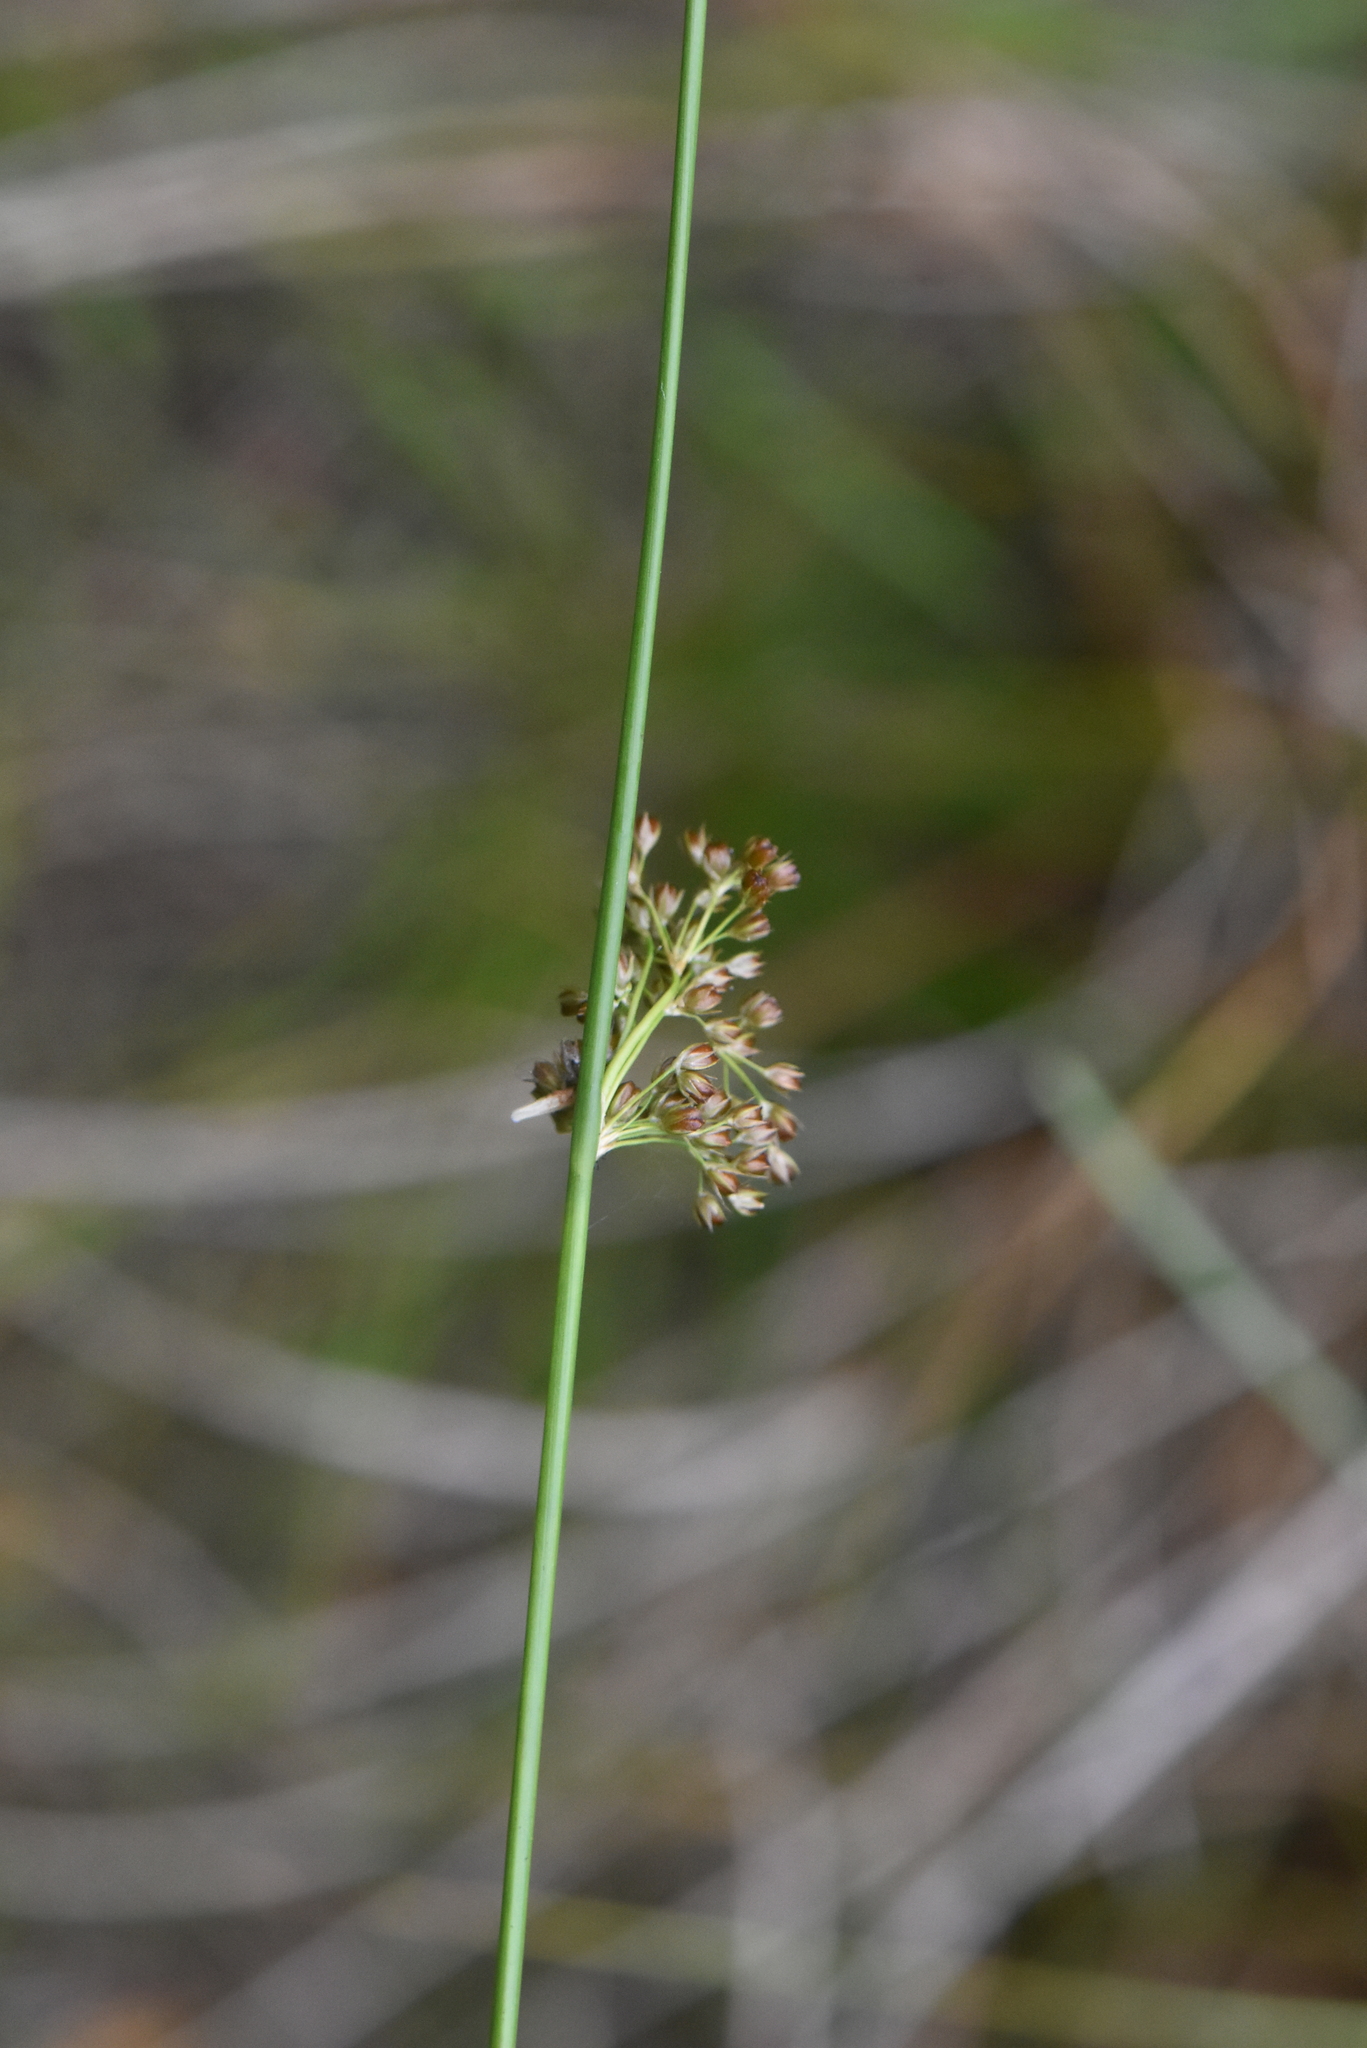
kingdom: Plantae
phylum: Tracheophyta
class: Liliopsida
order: Poales
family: Juncaceae
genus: Juncus
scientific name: Juncus effusus
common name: Soft rush
